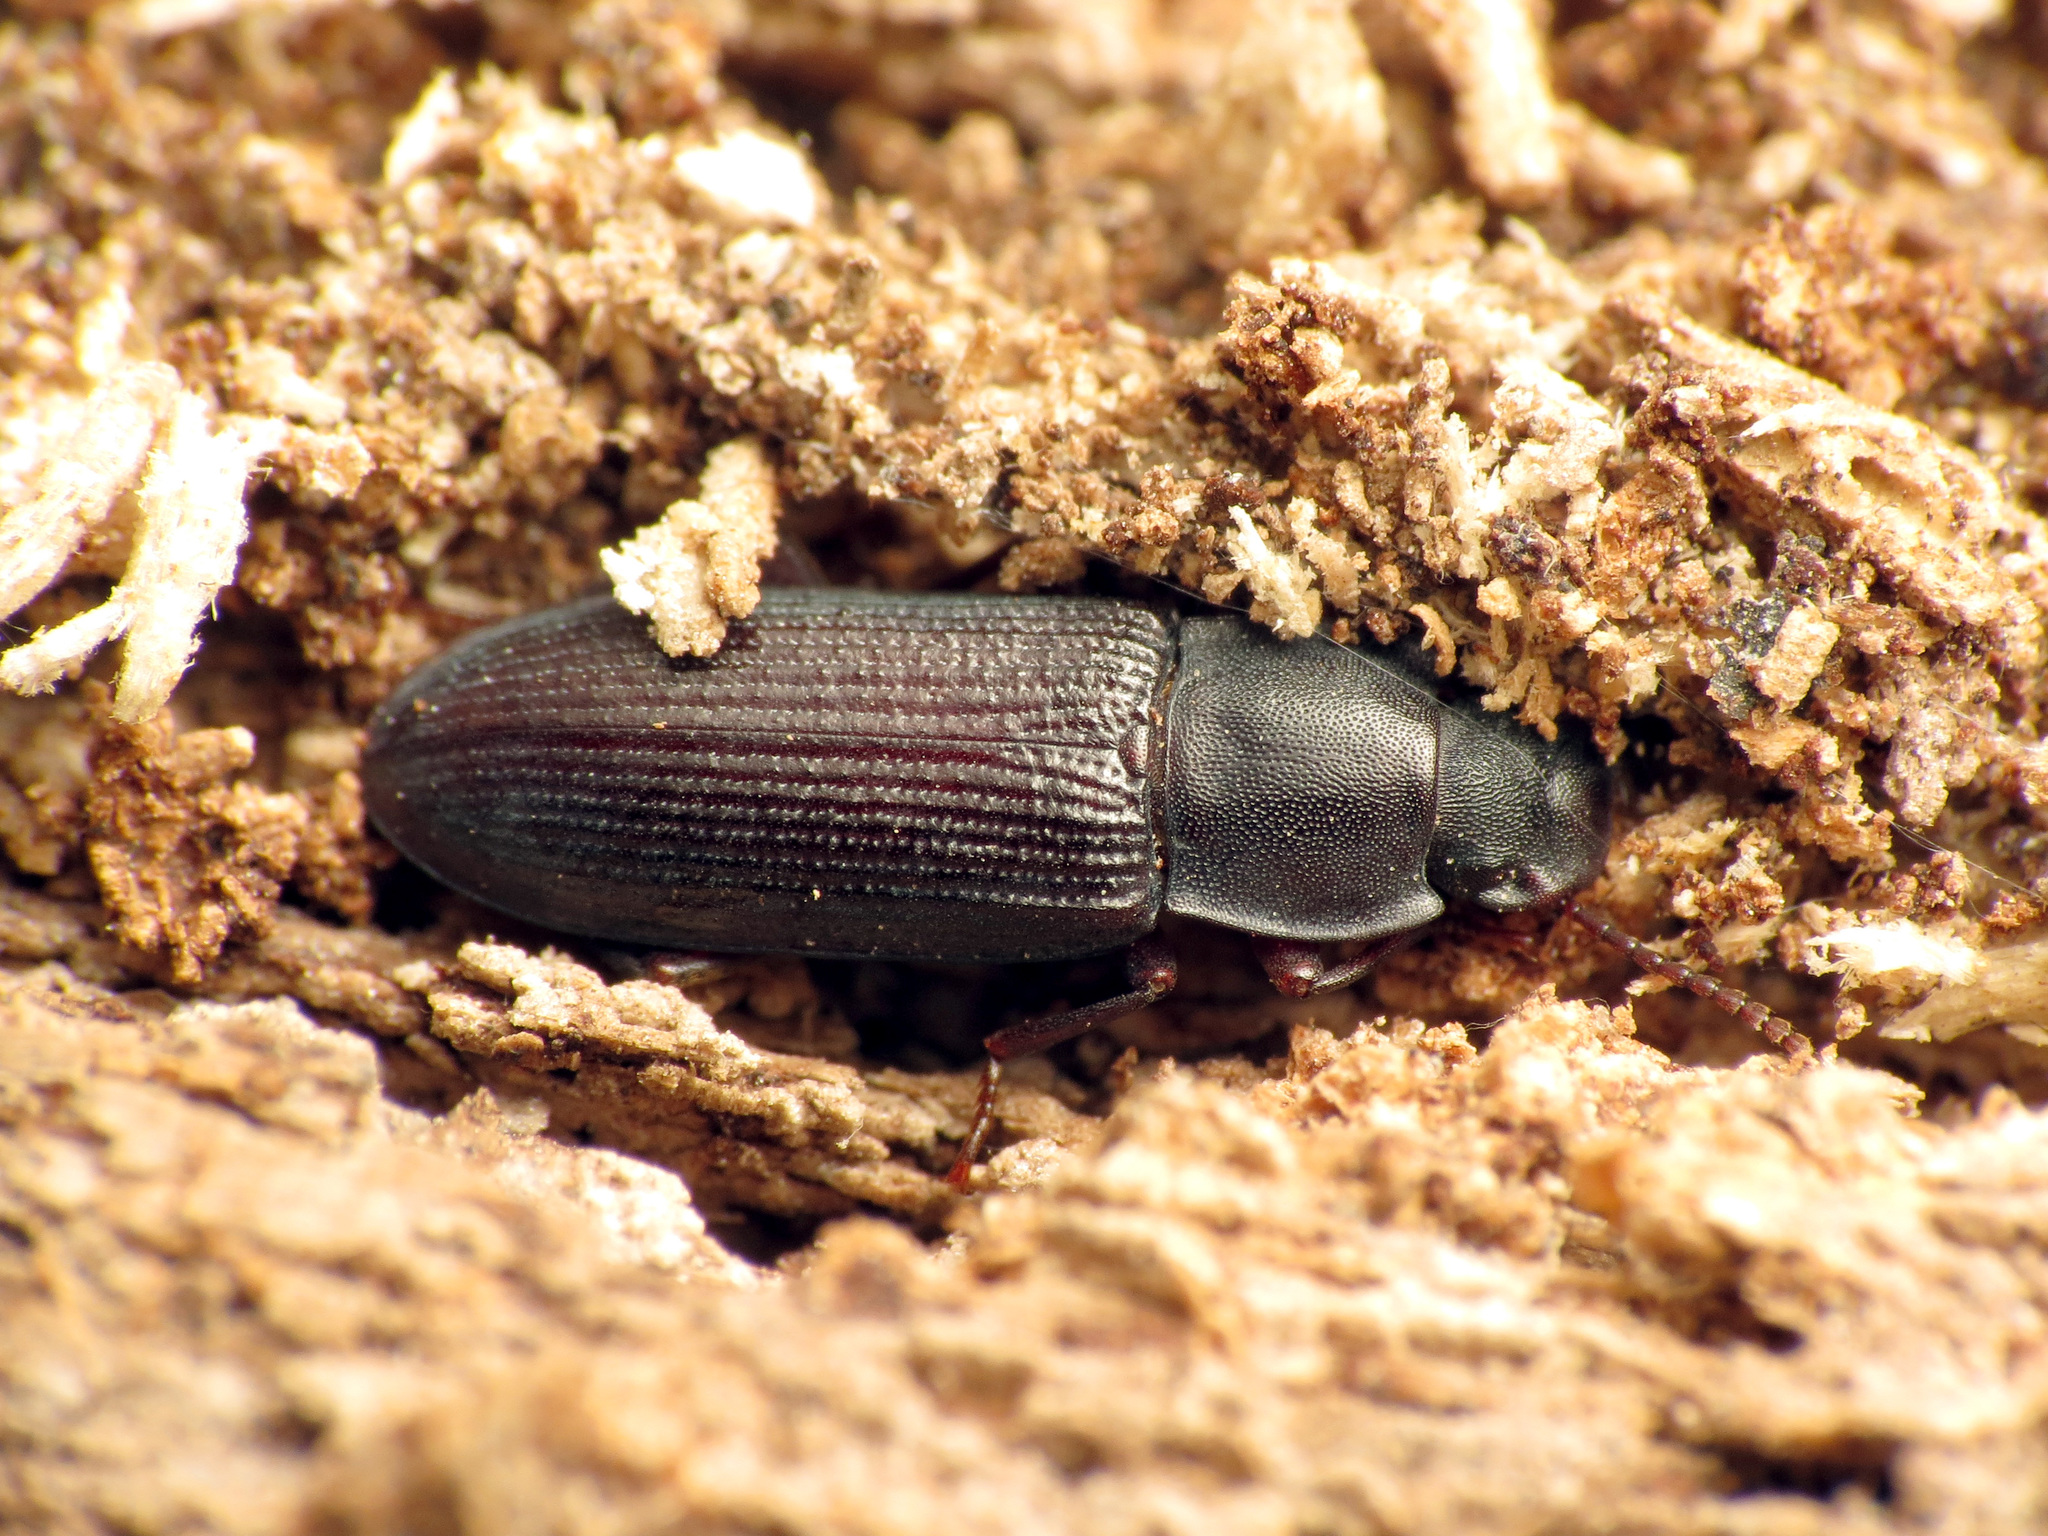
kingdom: Animalia
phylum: Arthropoda
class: Insecta
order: Coleoptera
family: Tenebrionidae
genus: Idiobates
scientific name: Idiobates castaneus
